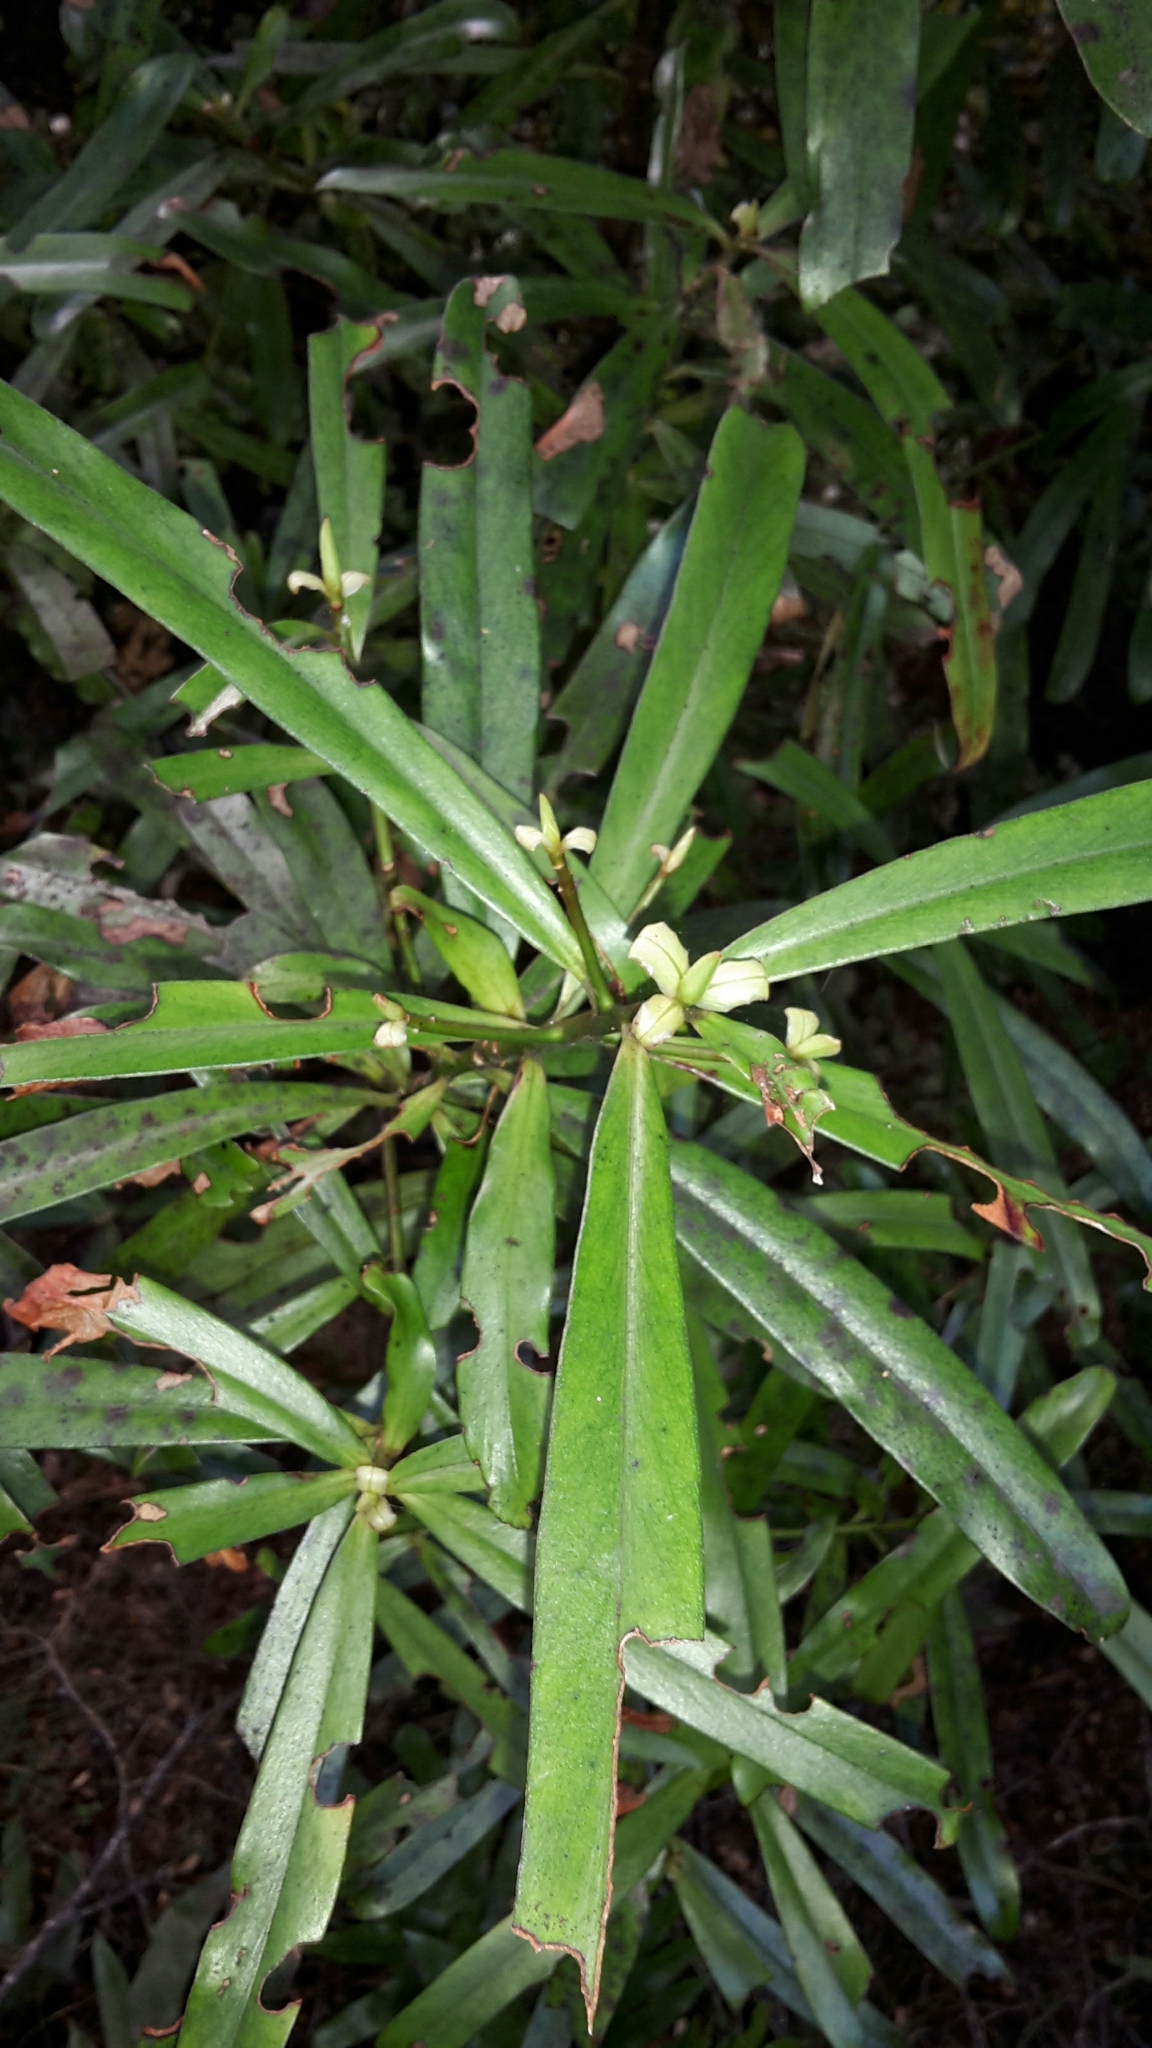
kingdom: Plantae
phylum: Tracheophyta
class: Magnoliopsida
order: Ericales
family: Primulaceae
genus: Myrsine
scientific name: Myrsine salicina
